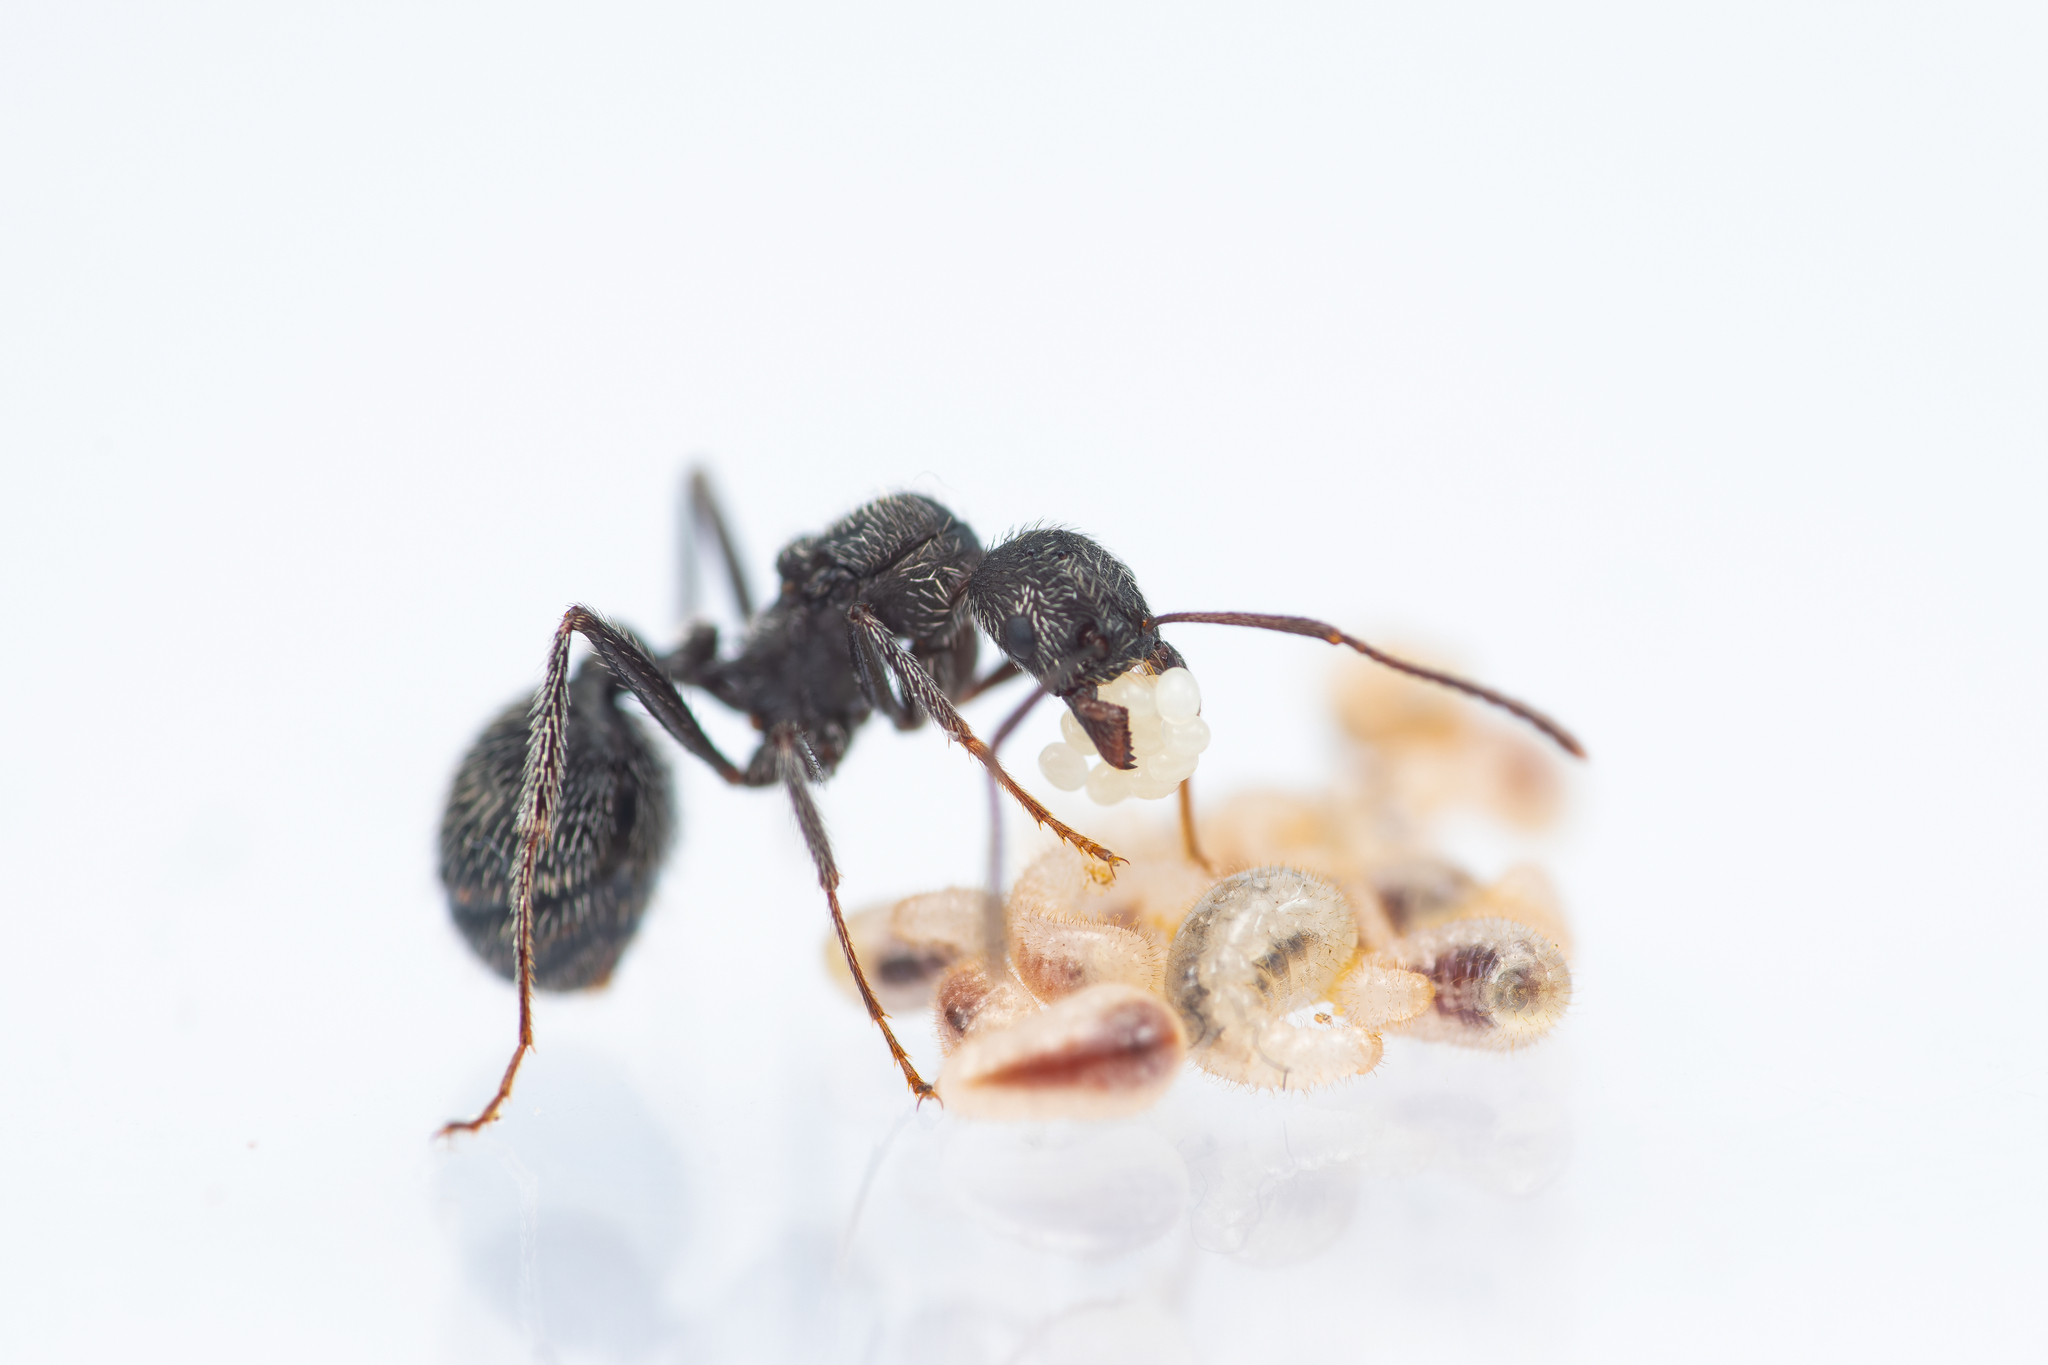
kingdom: Animalia
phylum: Arthropoda
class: Insecta
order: Hymenoptera
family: Formicidae
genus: Aphaenogaster
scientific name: Aphaenogaster senilis
